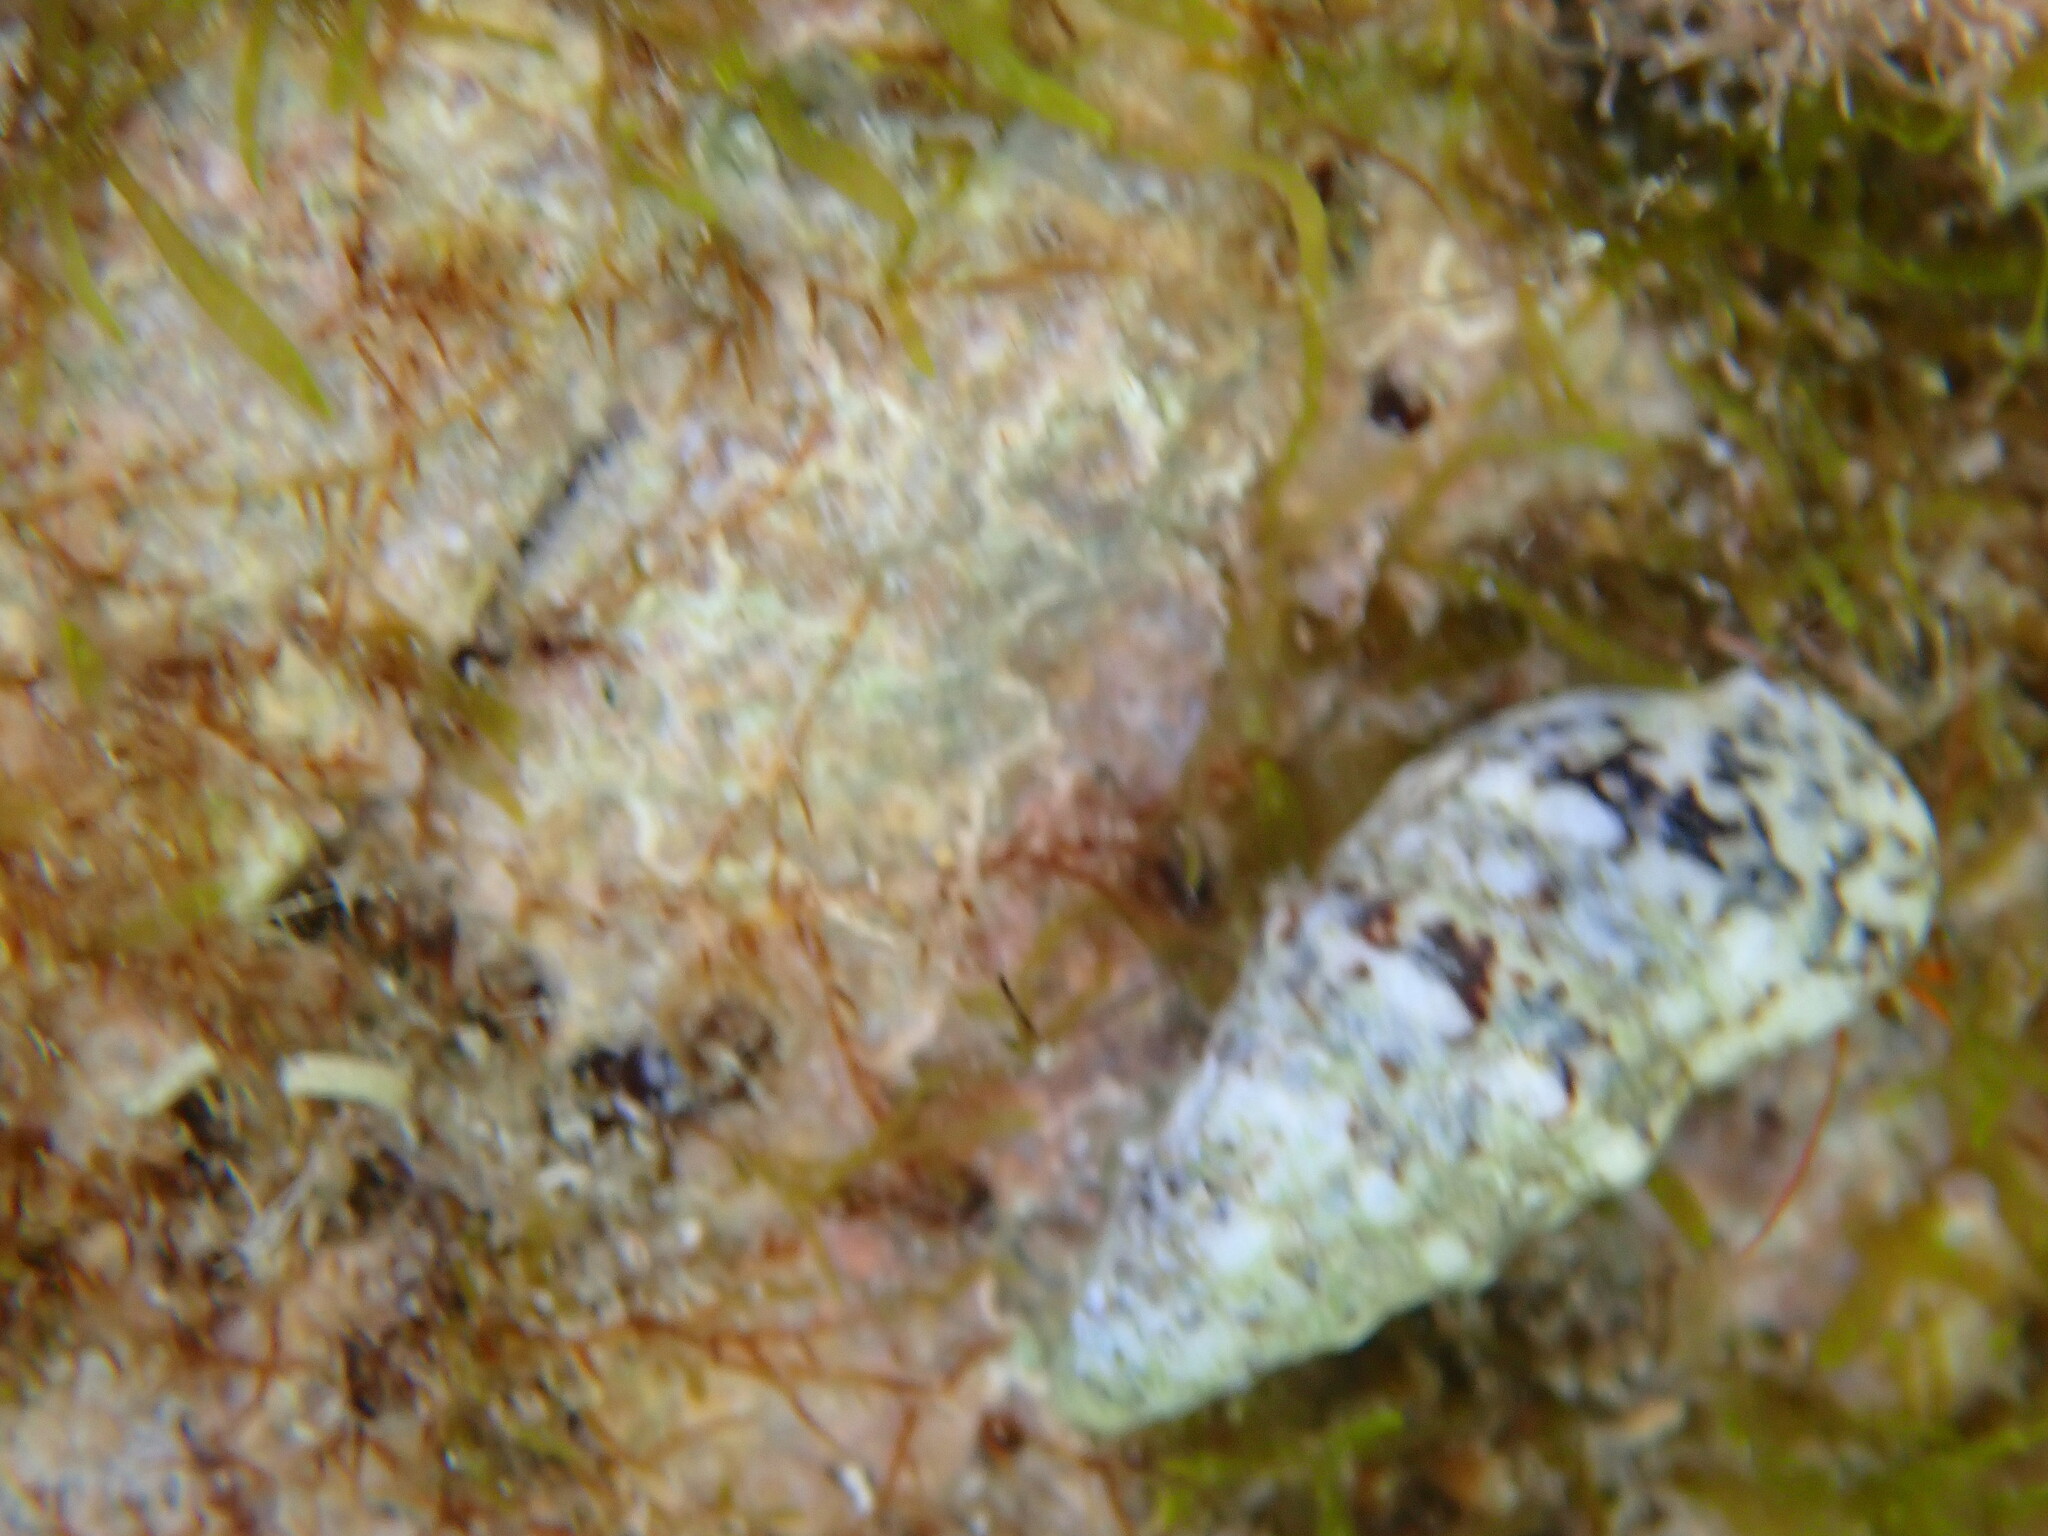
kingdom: Animalia
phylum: Arthropoda
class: Malacostraca
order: Decapoda
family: Diogenidae
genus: Clibanarius
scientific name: Clibanarius erythropus
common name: Hermit crab
